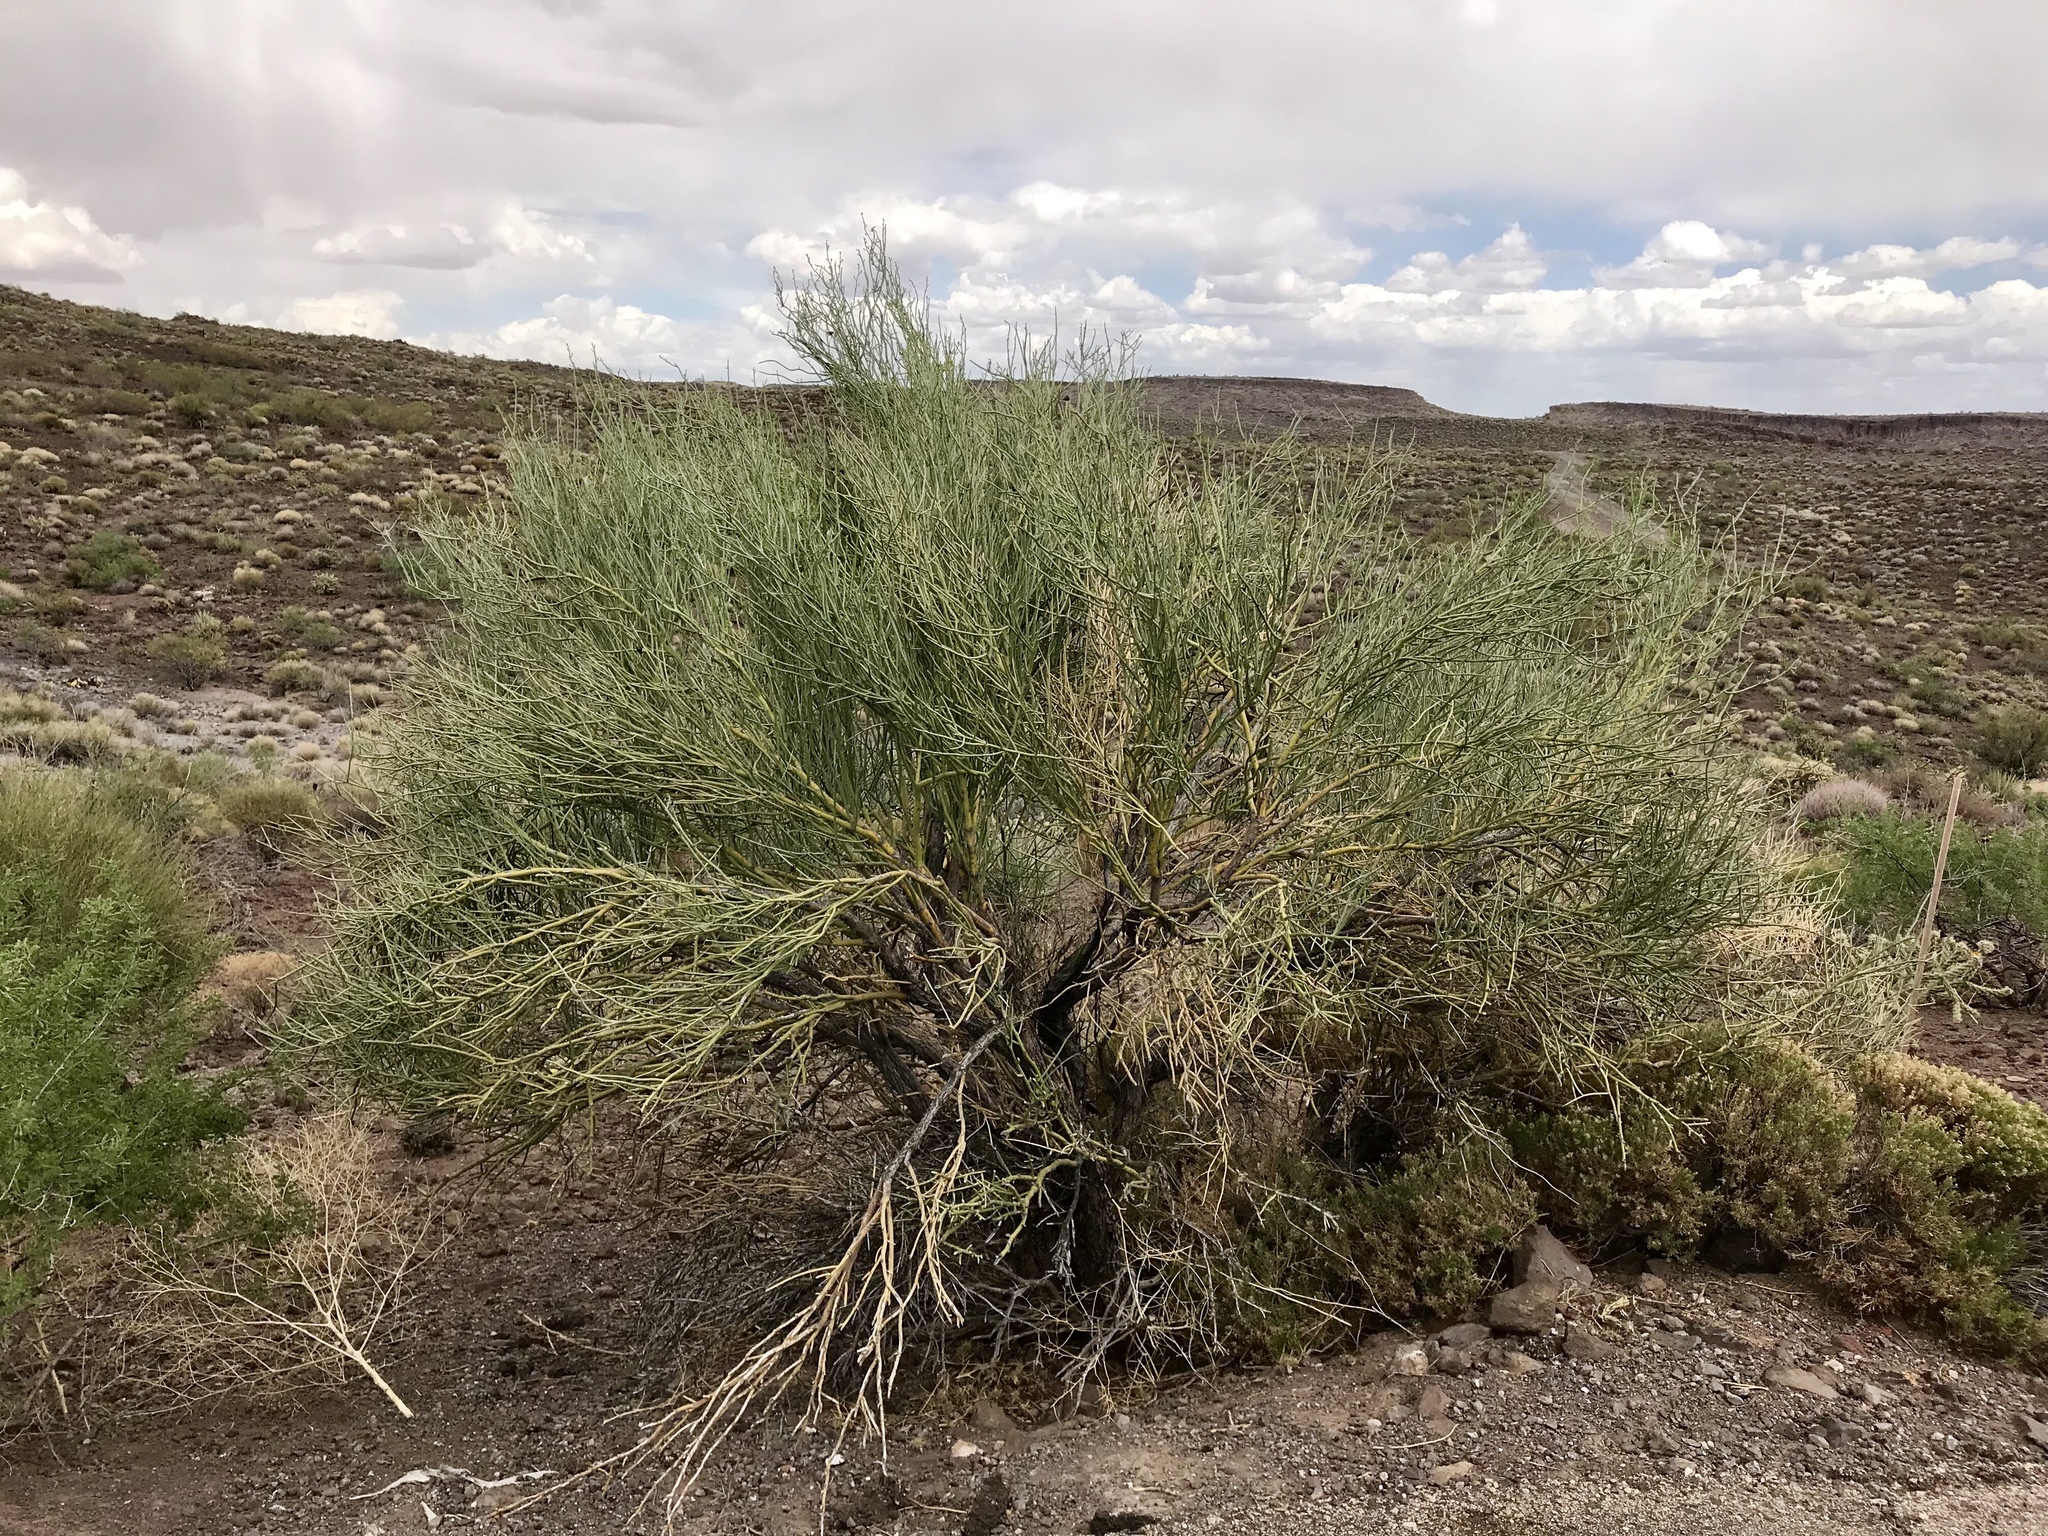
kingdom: Plantae
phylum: Tracheophyta
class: Magnoliopsida
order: Celastrales
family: Celastraceae
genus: Canotia
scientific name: Canotia holacantha
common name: Crucifixion thorns
